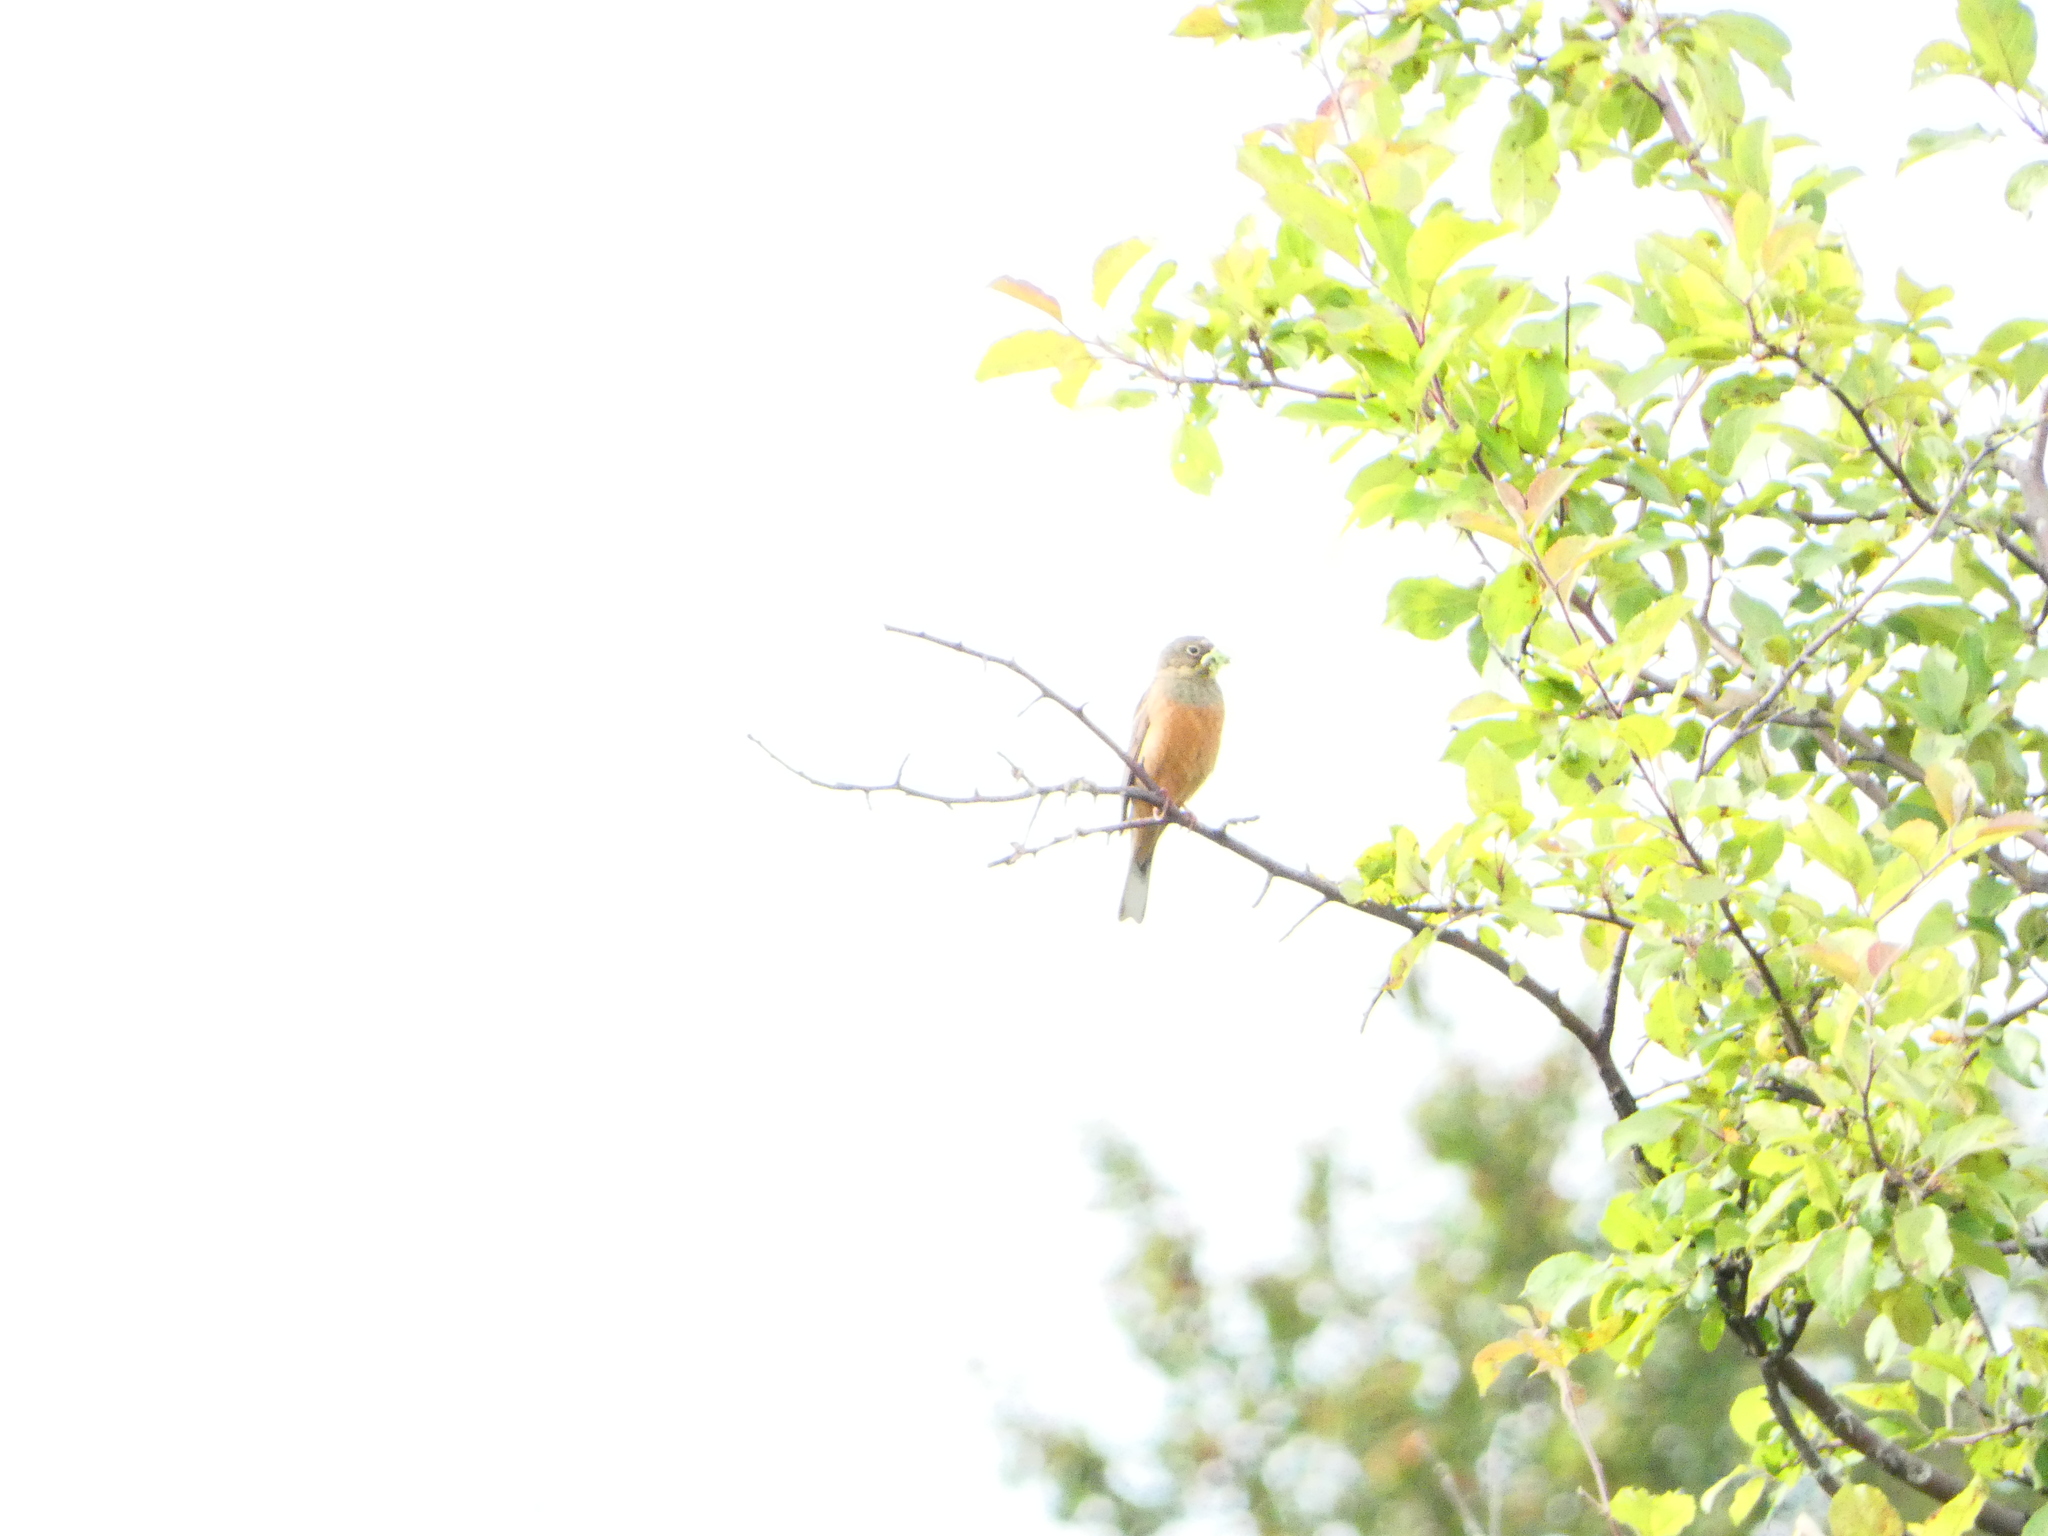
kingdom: Animalia
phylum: Chordata
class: Aves
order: Passeriformes
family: Emberizidae
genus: Emberiza
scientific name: Emberiza hortulana
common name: Ortolan bunting
